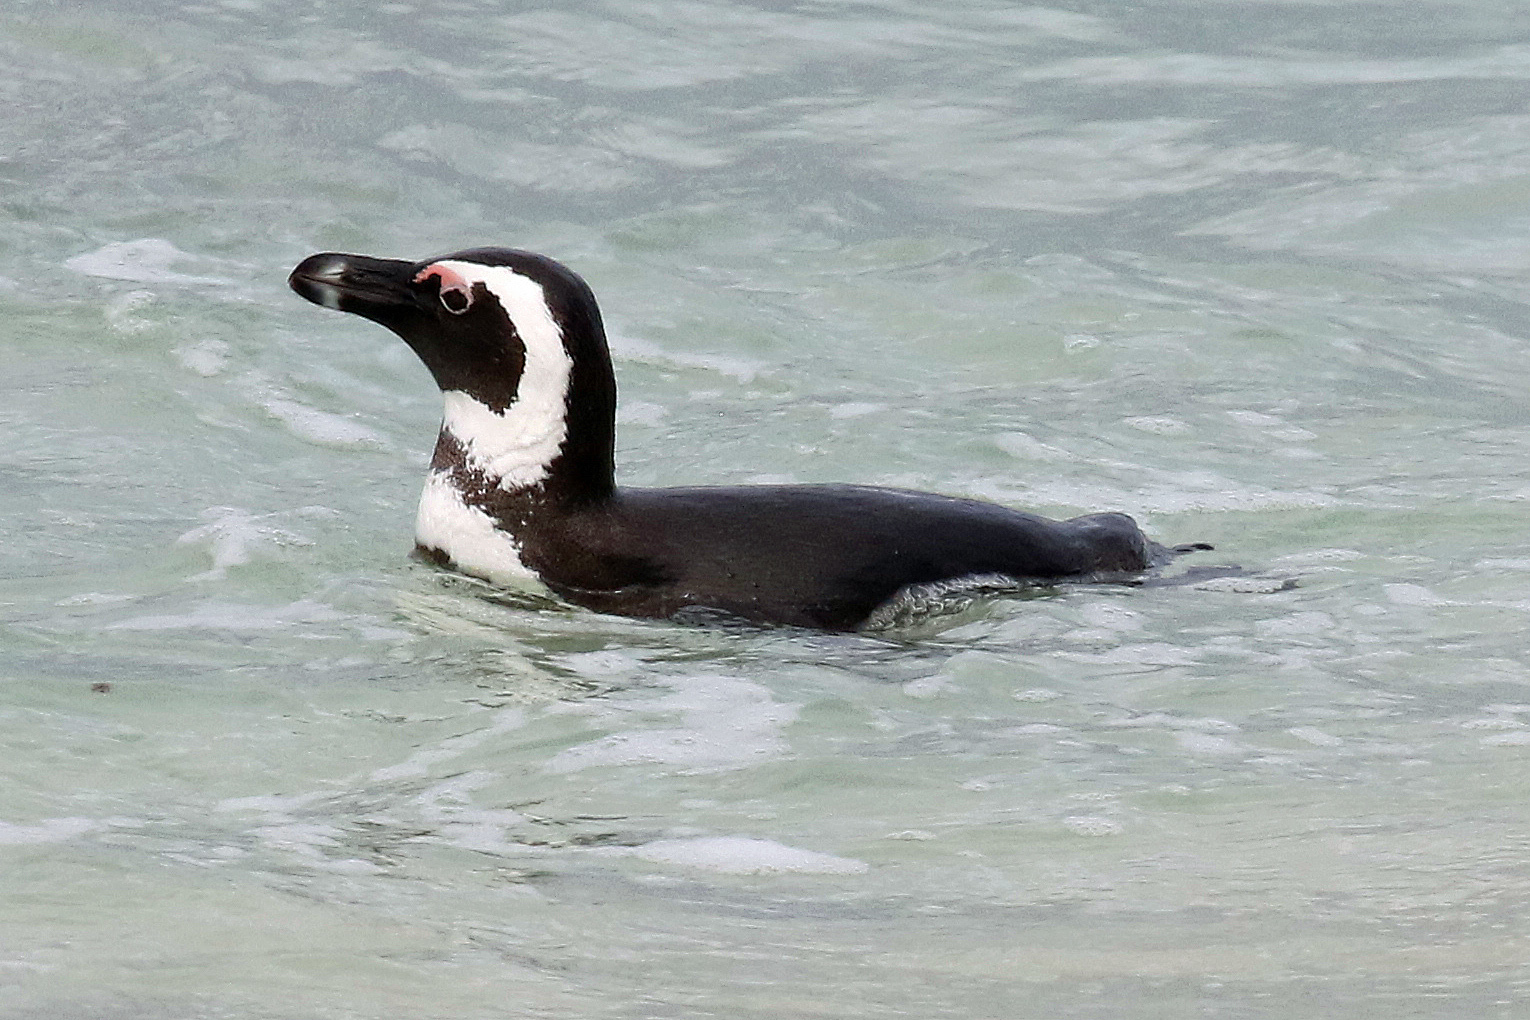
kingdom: Animalia
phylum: Chordata
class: Aves
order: Sphenisciformes
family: Spheniscidae
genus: Spheniscus
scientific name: Spheniscus demersus
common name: African penguin
